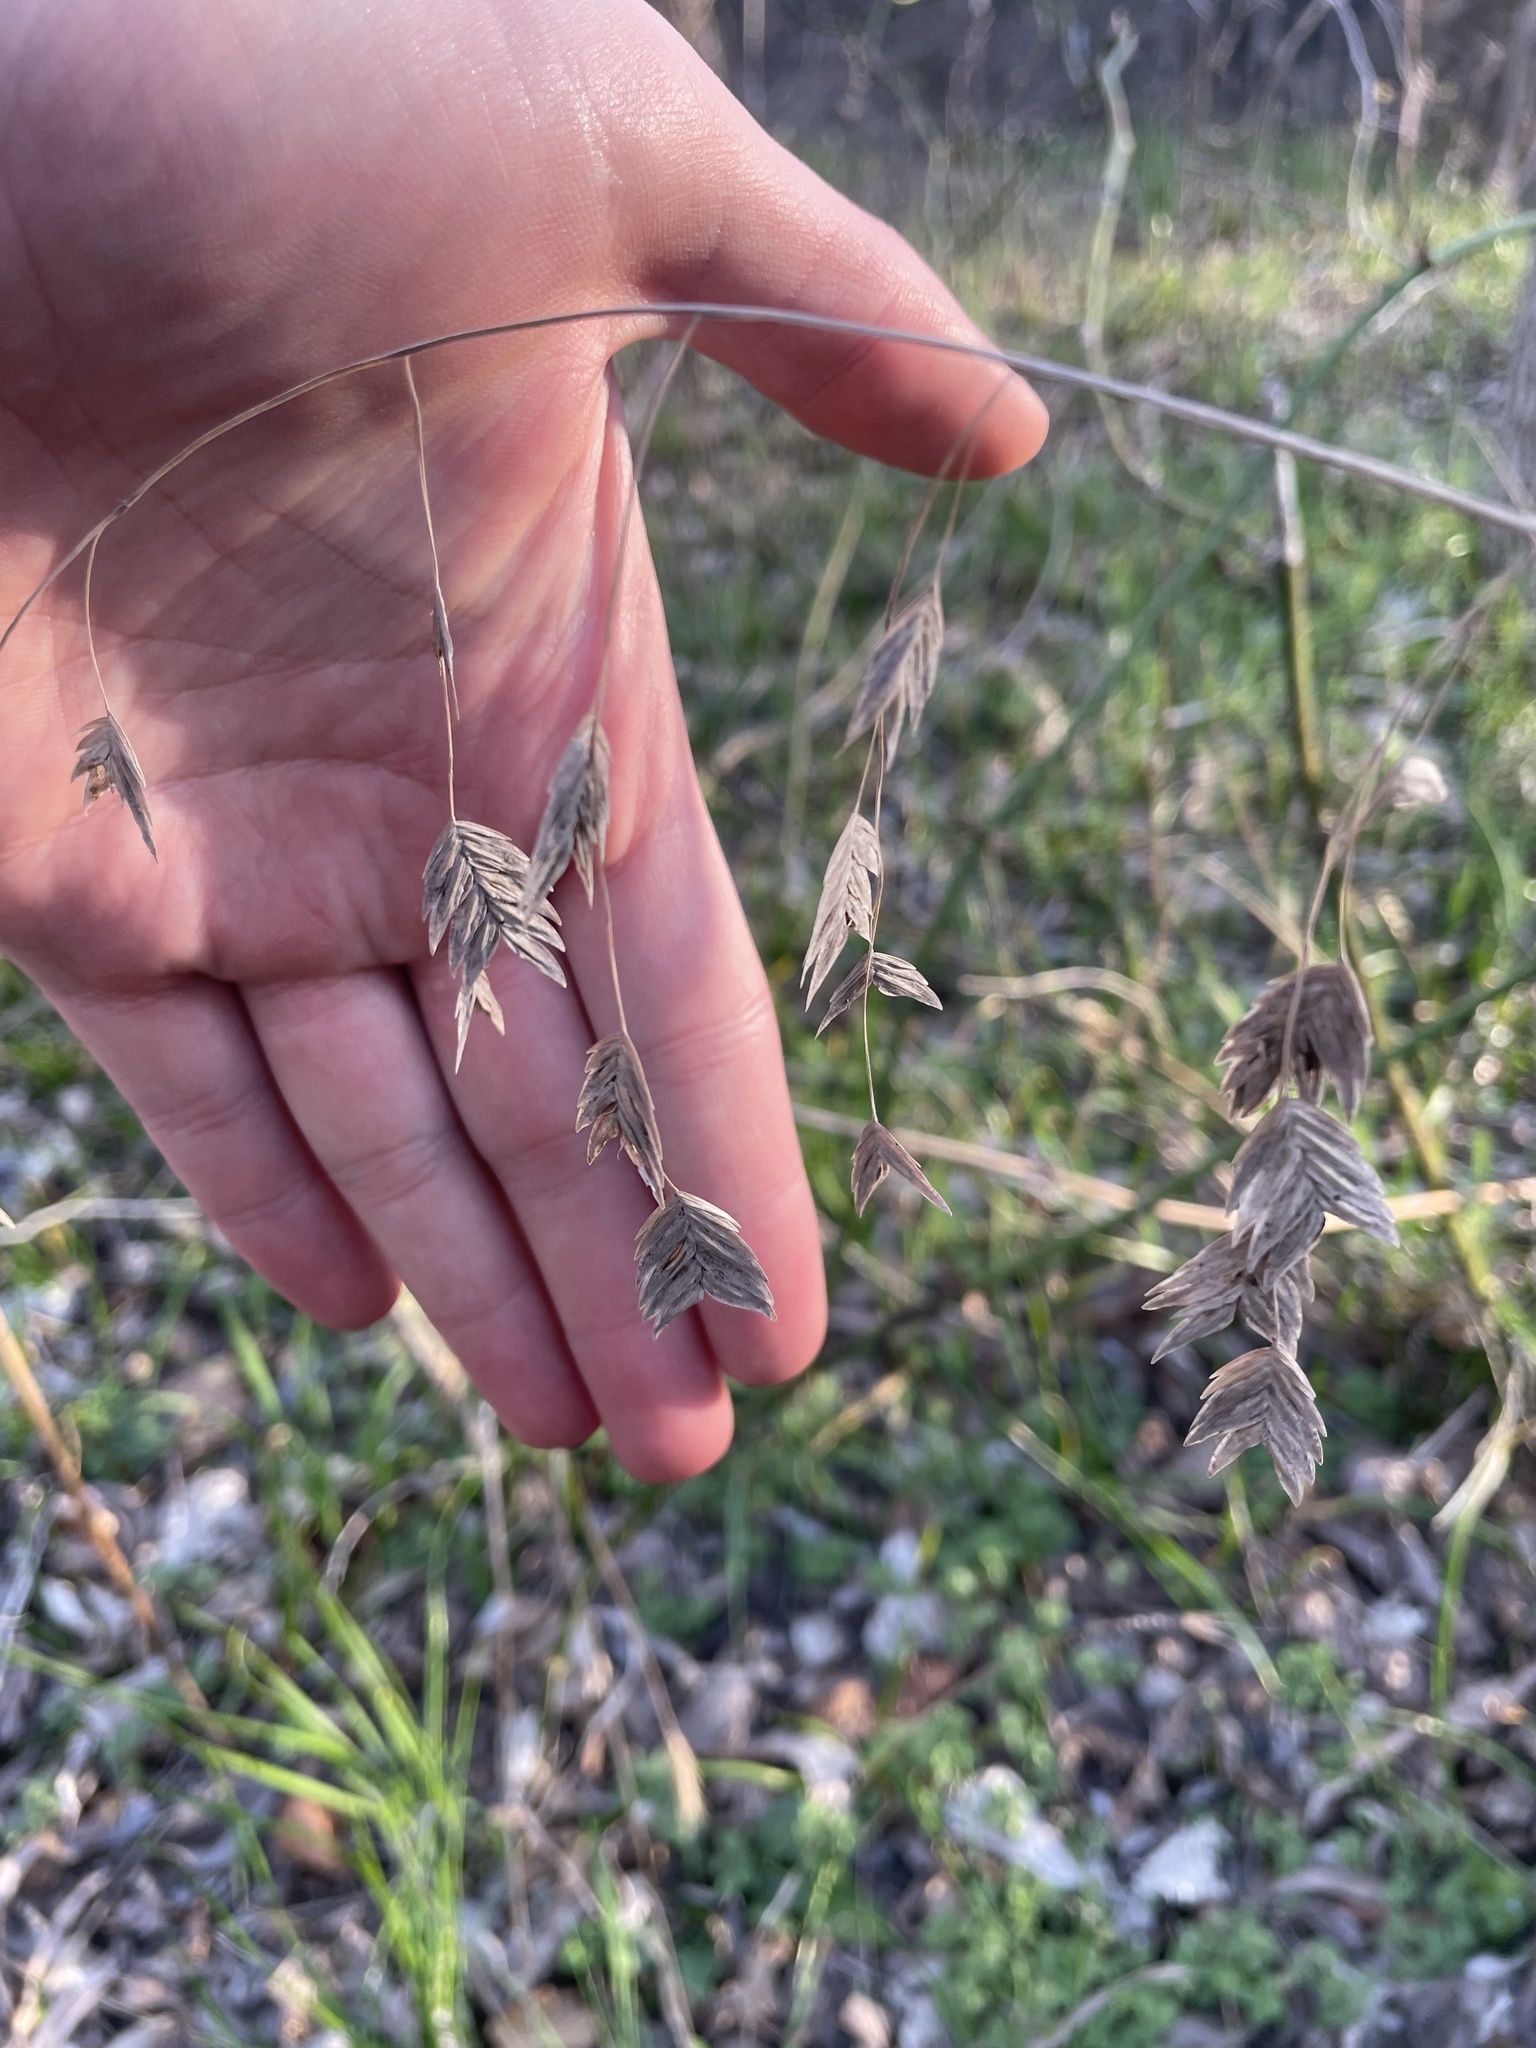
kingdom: Plantae
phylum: Tracheophyta
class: Liliopsida
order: Poales
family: Poaceae
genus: Chasmanthium
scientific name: Chasmanthium latifolium
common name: Broad-leaved chasmanthium
